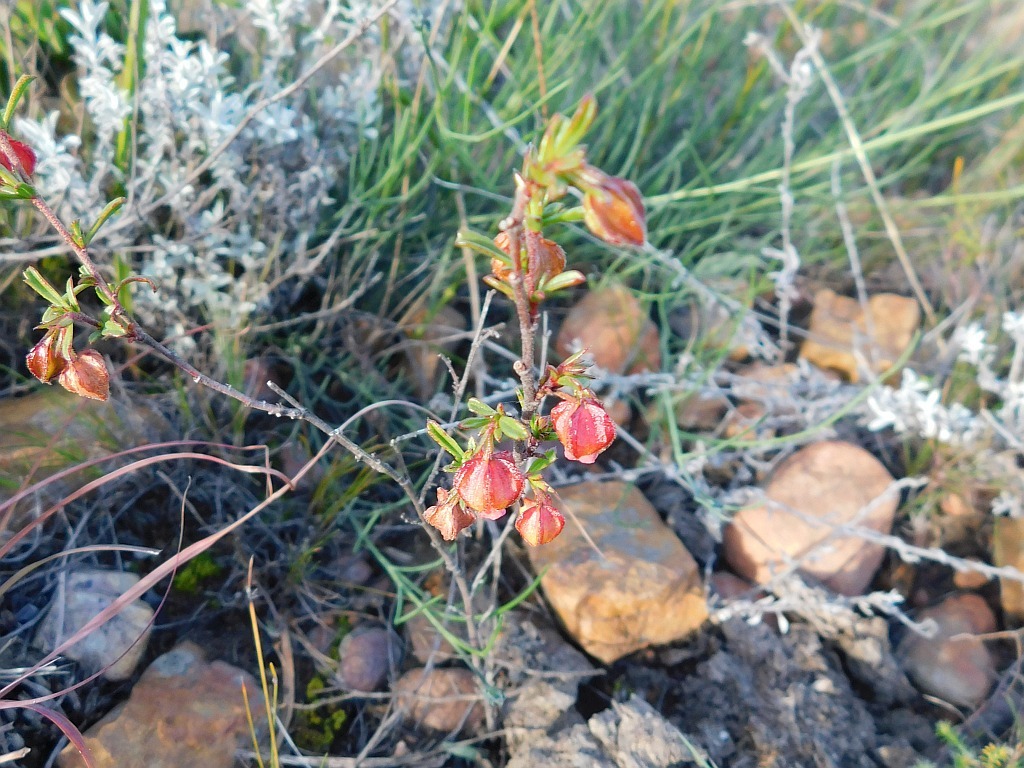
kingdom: Plantae
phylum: Tracheophyta
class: Magnoliopsida
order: Malvales
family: Malvaceae
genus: Hermannia
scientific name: Hermannia angularis
